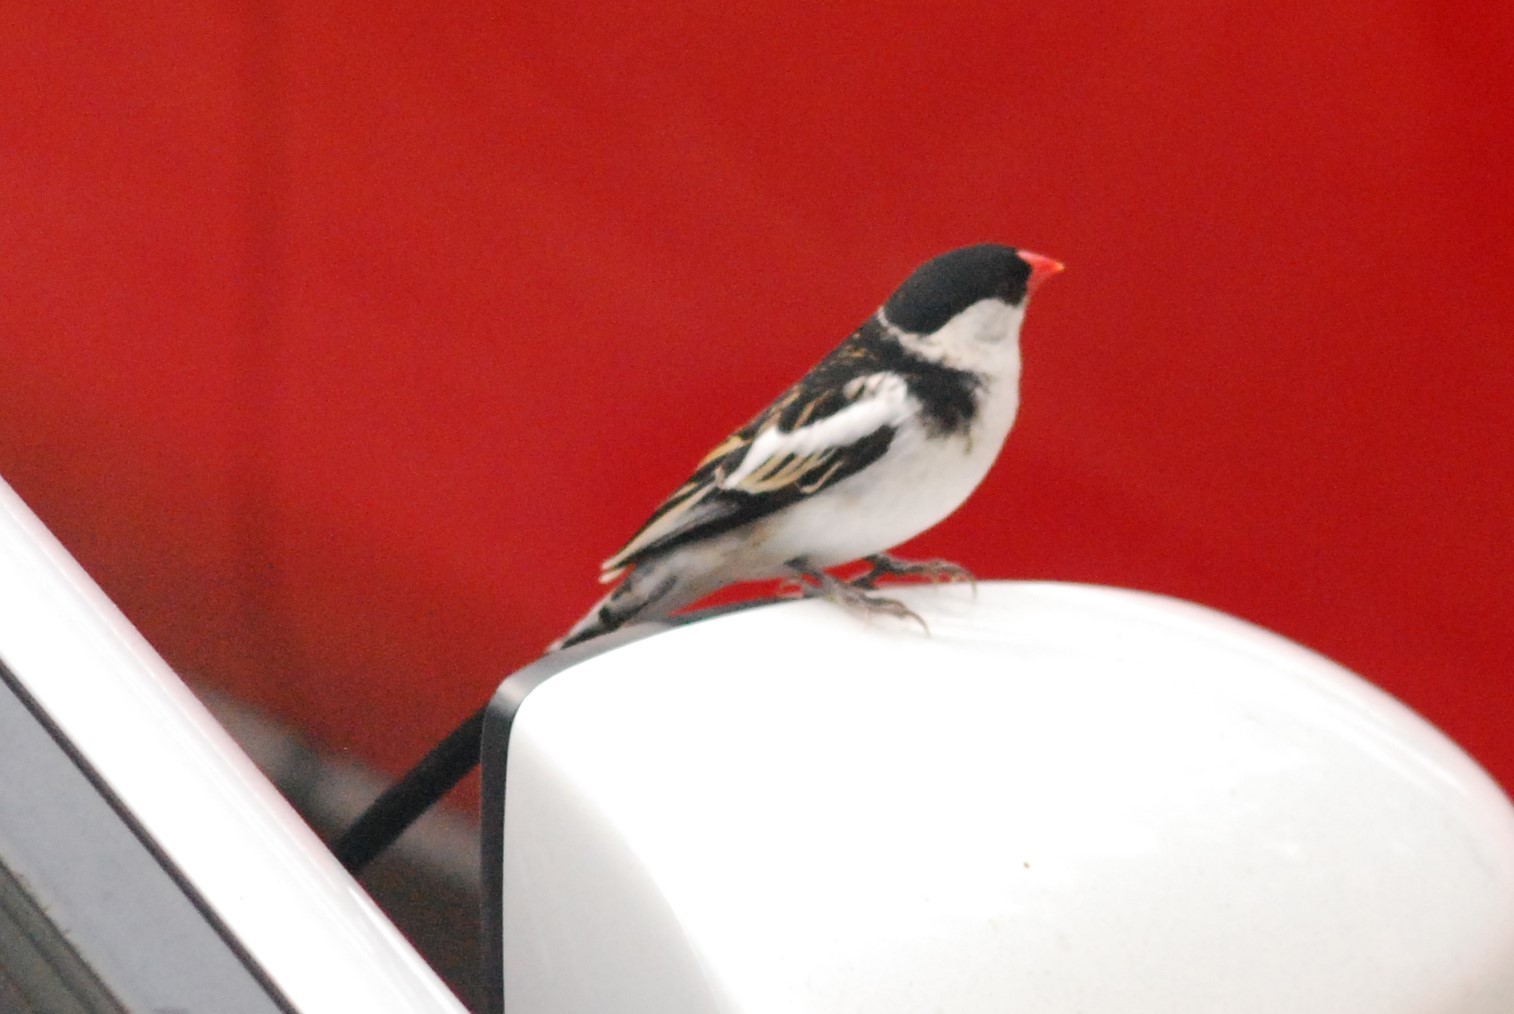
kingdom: Animalia
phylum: Chordata
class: Aves
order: Passeriformes
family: Viduidae
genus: Vidua
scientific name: Vidua macroura
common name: Pin-tailed whydah
